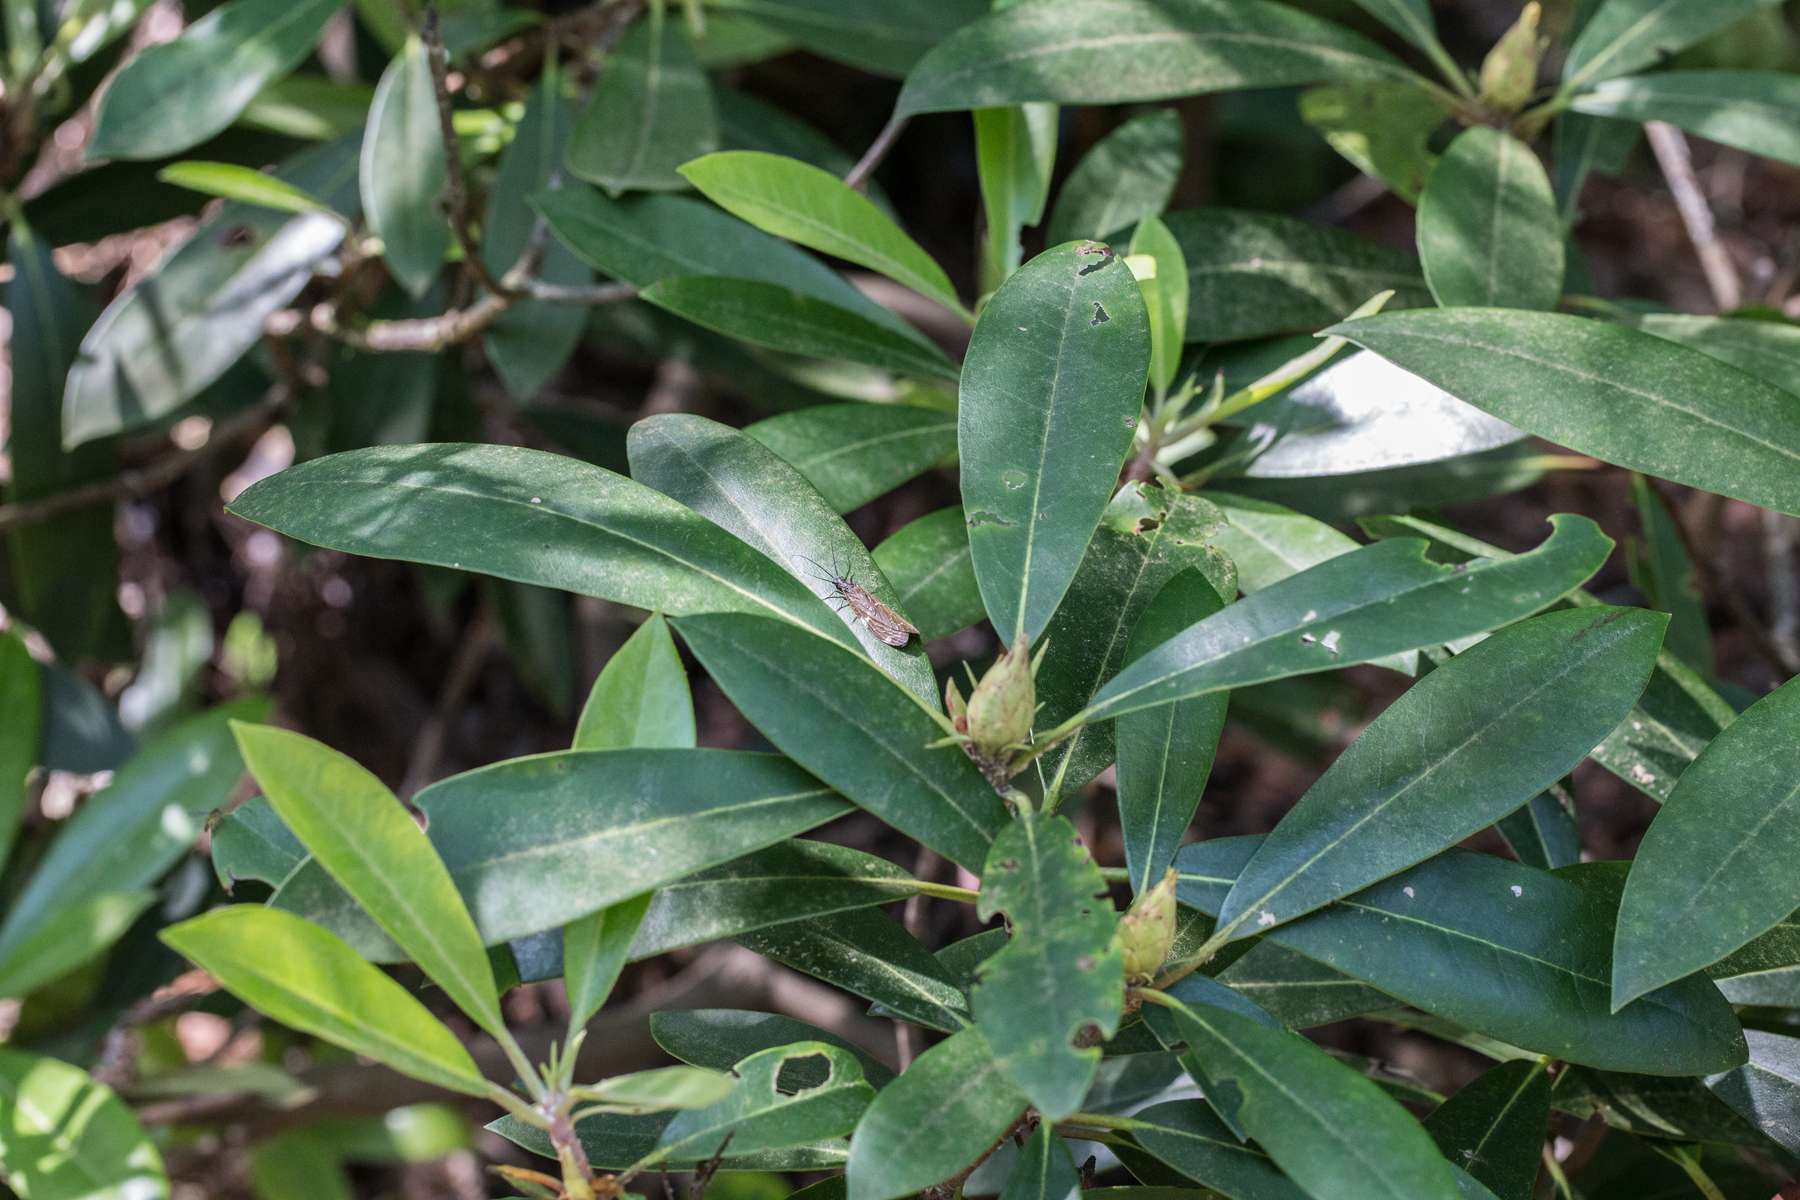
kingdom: Plantae
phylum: Tracheophyta
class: Magnoliopsida
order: Ericales
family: Ericaceae
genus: Rhododendron
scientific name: Rhododendron maximum
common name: Great rhododendron
